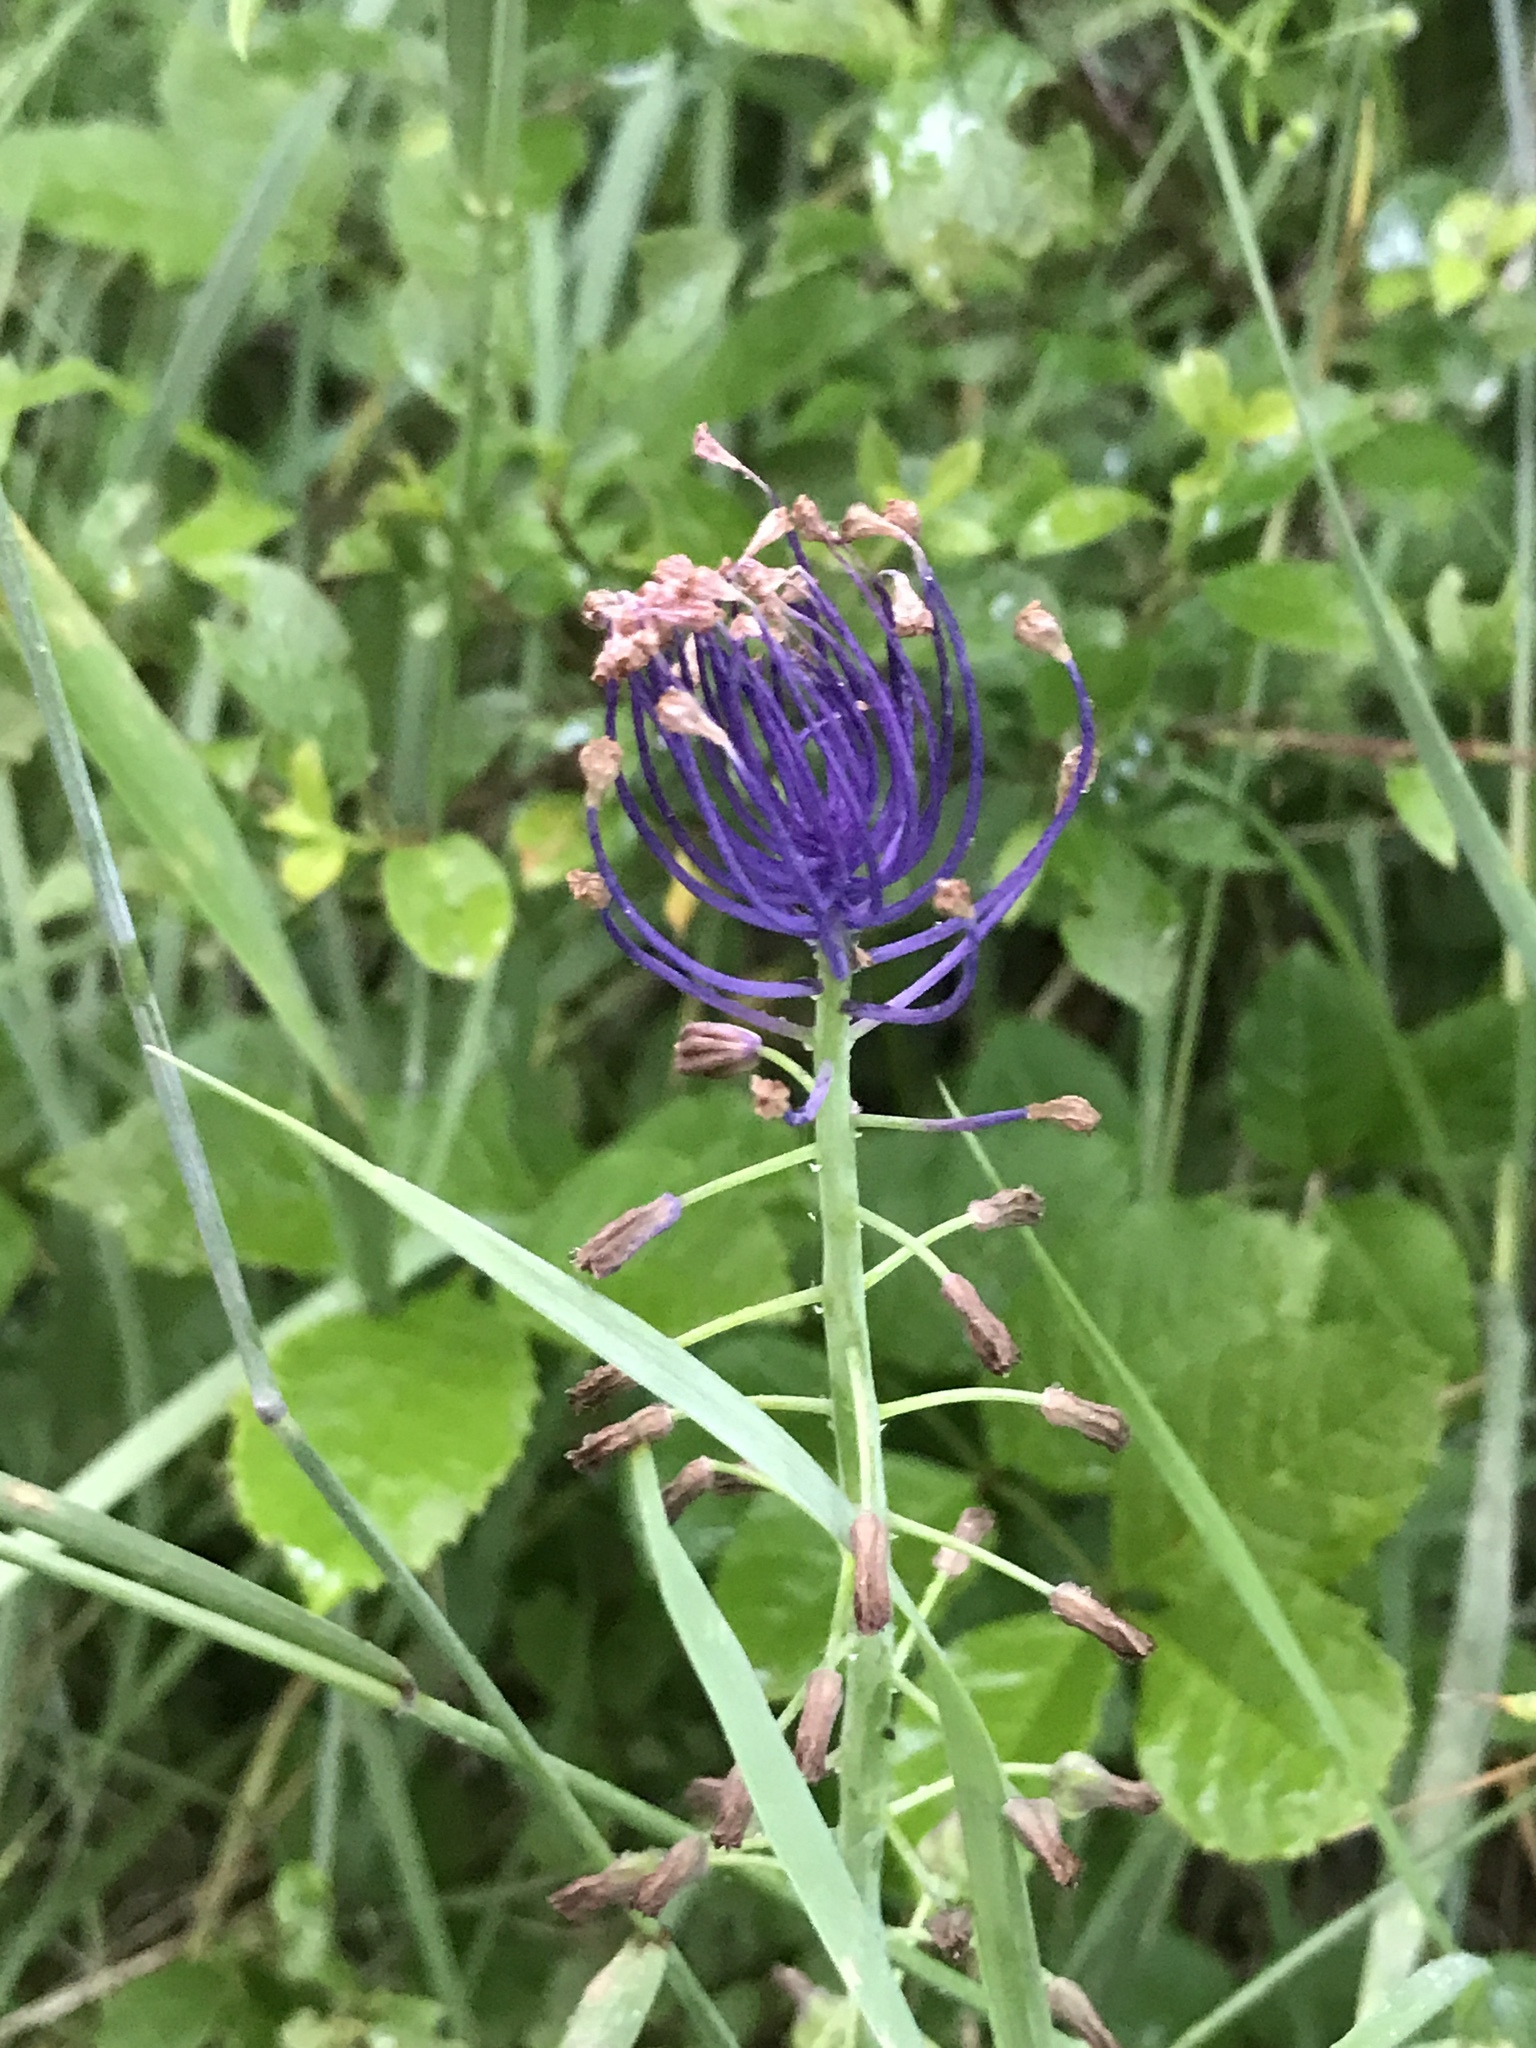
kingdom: Plantae
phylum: Tracheophyta
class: Liliopsida
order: Asparagales
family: Asparagaceae
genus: Muscari
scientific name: Muscari comosum
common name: Tassel hyacinth
